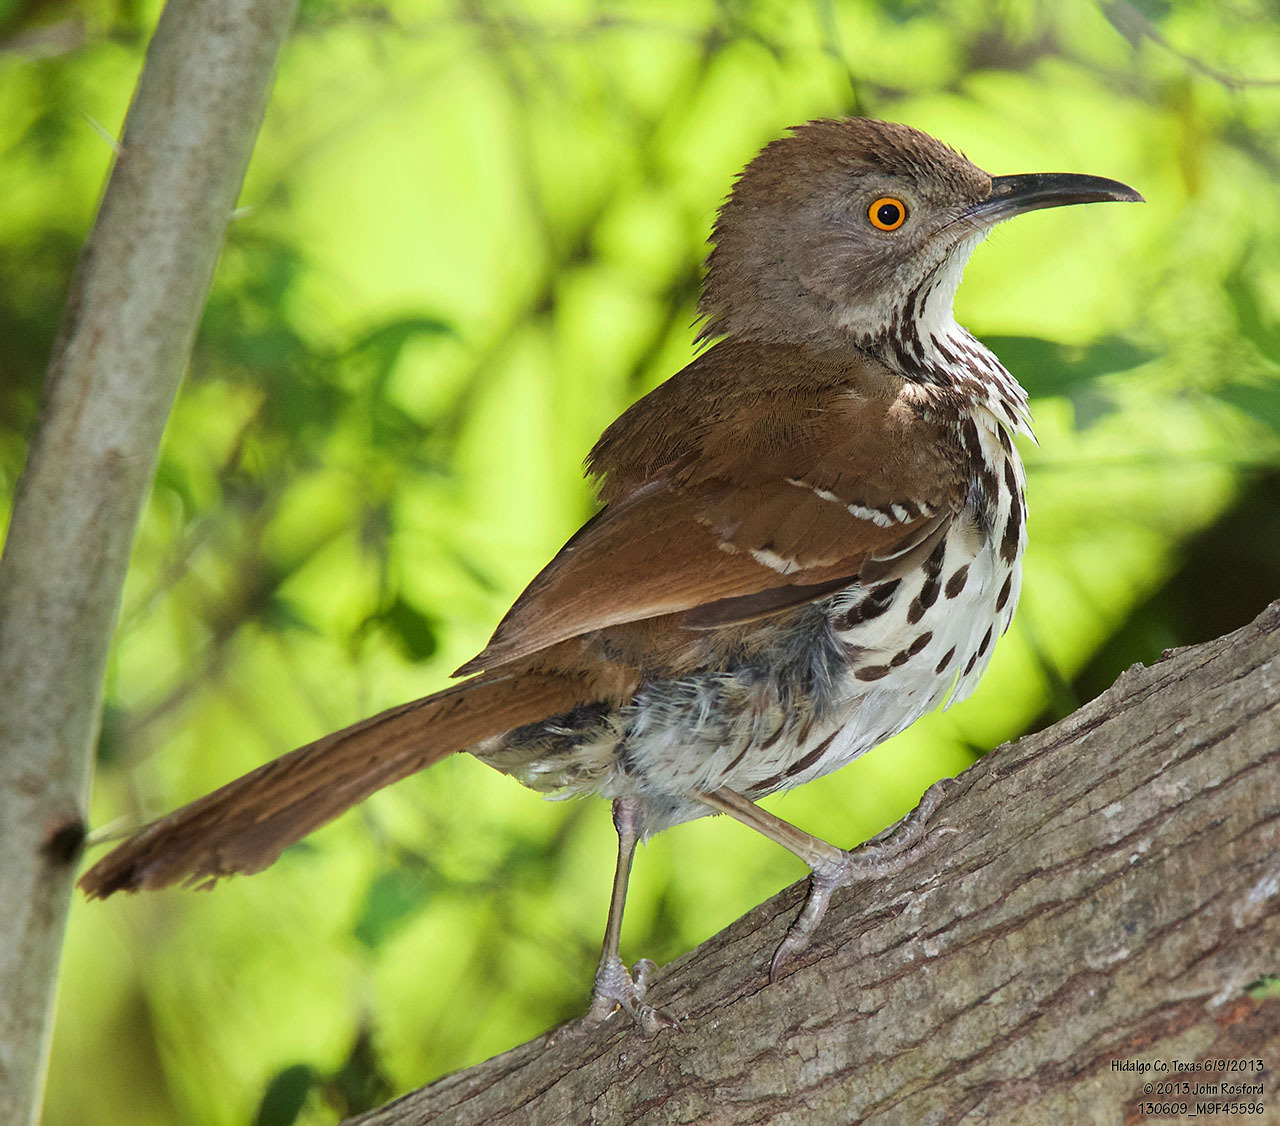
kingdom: Animalia
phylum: Chordata
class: Aves
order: Passeriformes
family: Mimidae
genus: Toxostoma
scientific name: Toxostoma longirostre
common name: Long-billed thrasher
